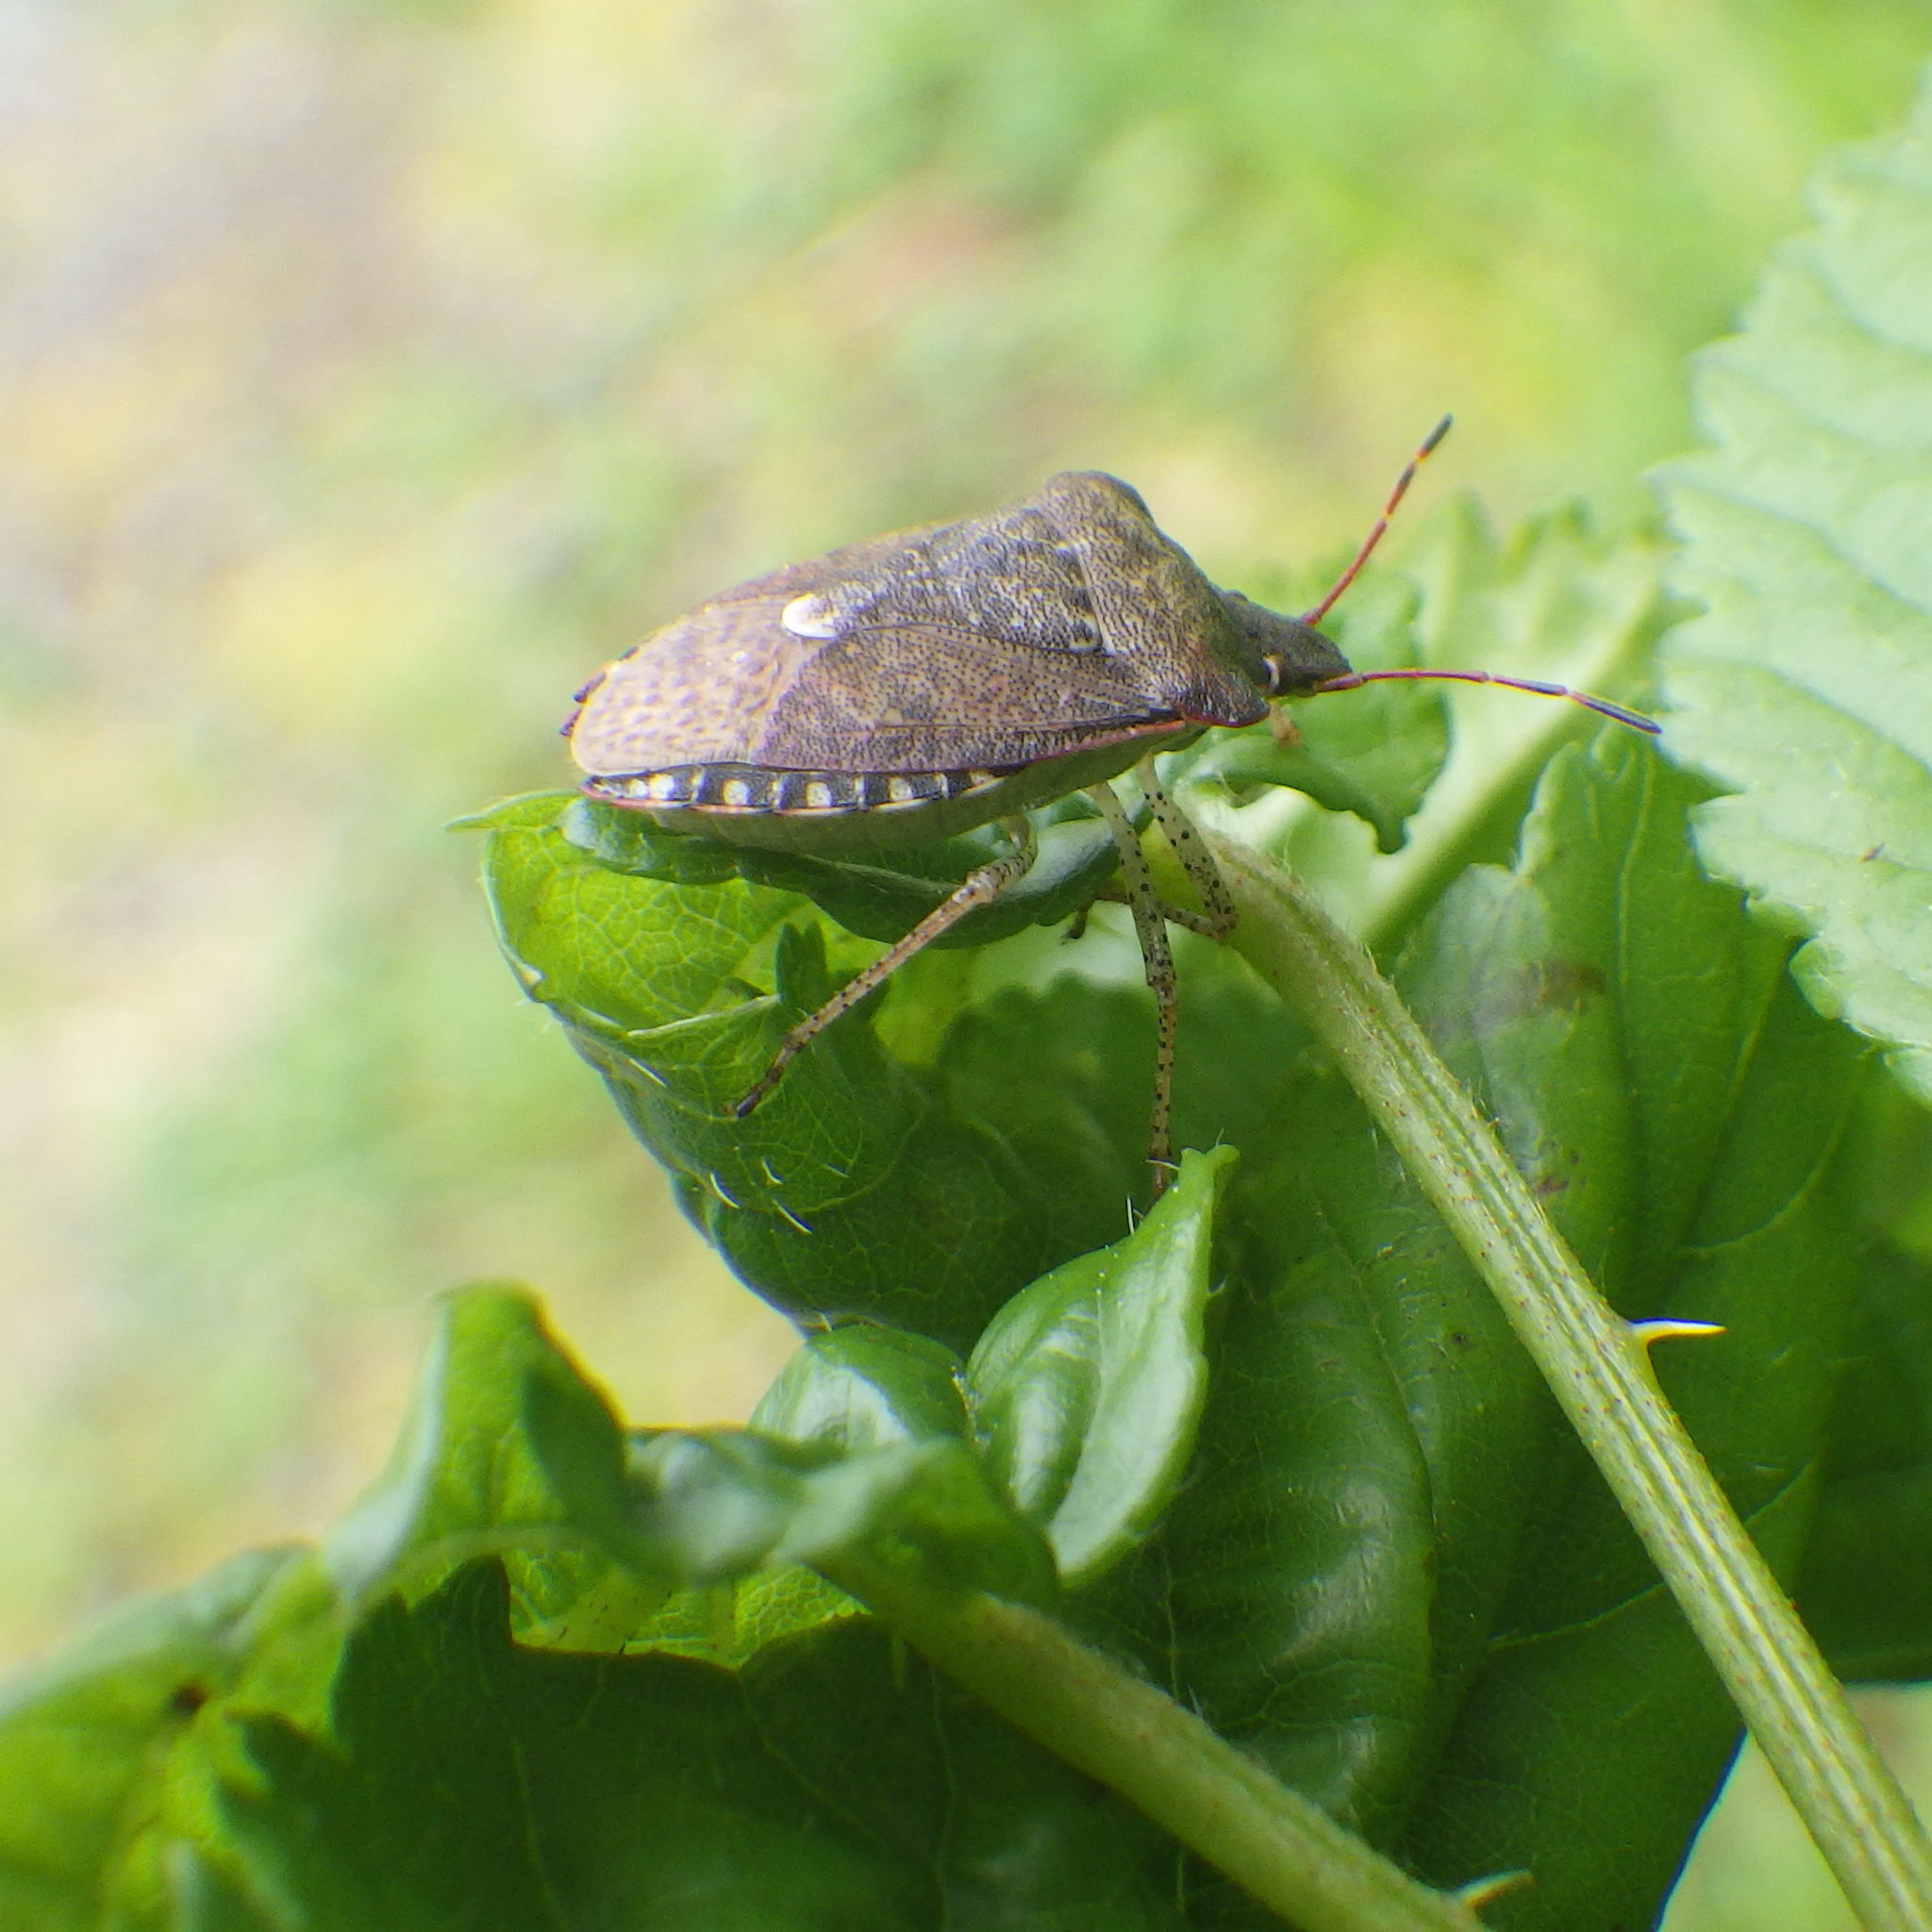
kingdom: Animalia
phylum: Arthropoda
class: Insecta
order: Hemiptera
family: Pentatomidae
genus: Euschistus
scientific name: Euschistus tristigmus
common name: Dusky stink bug
